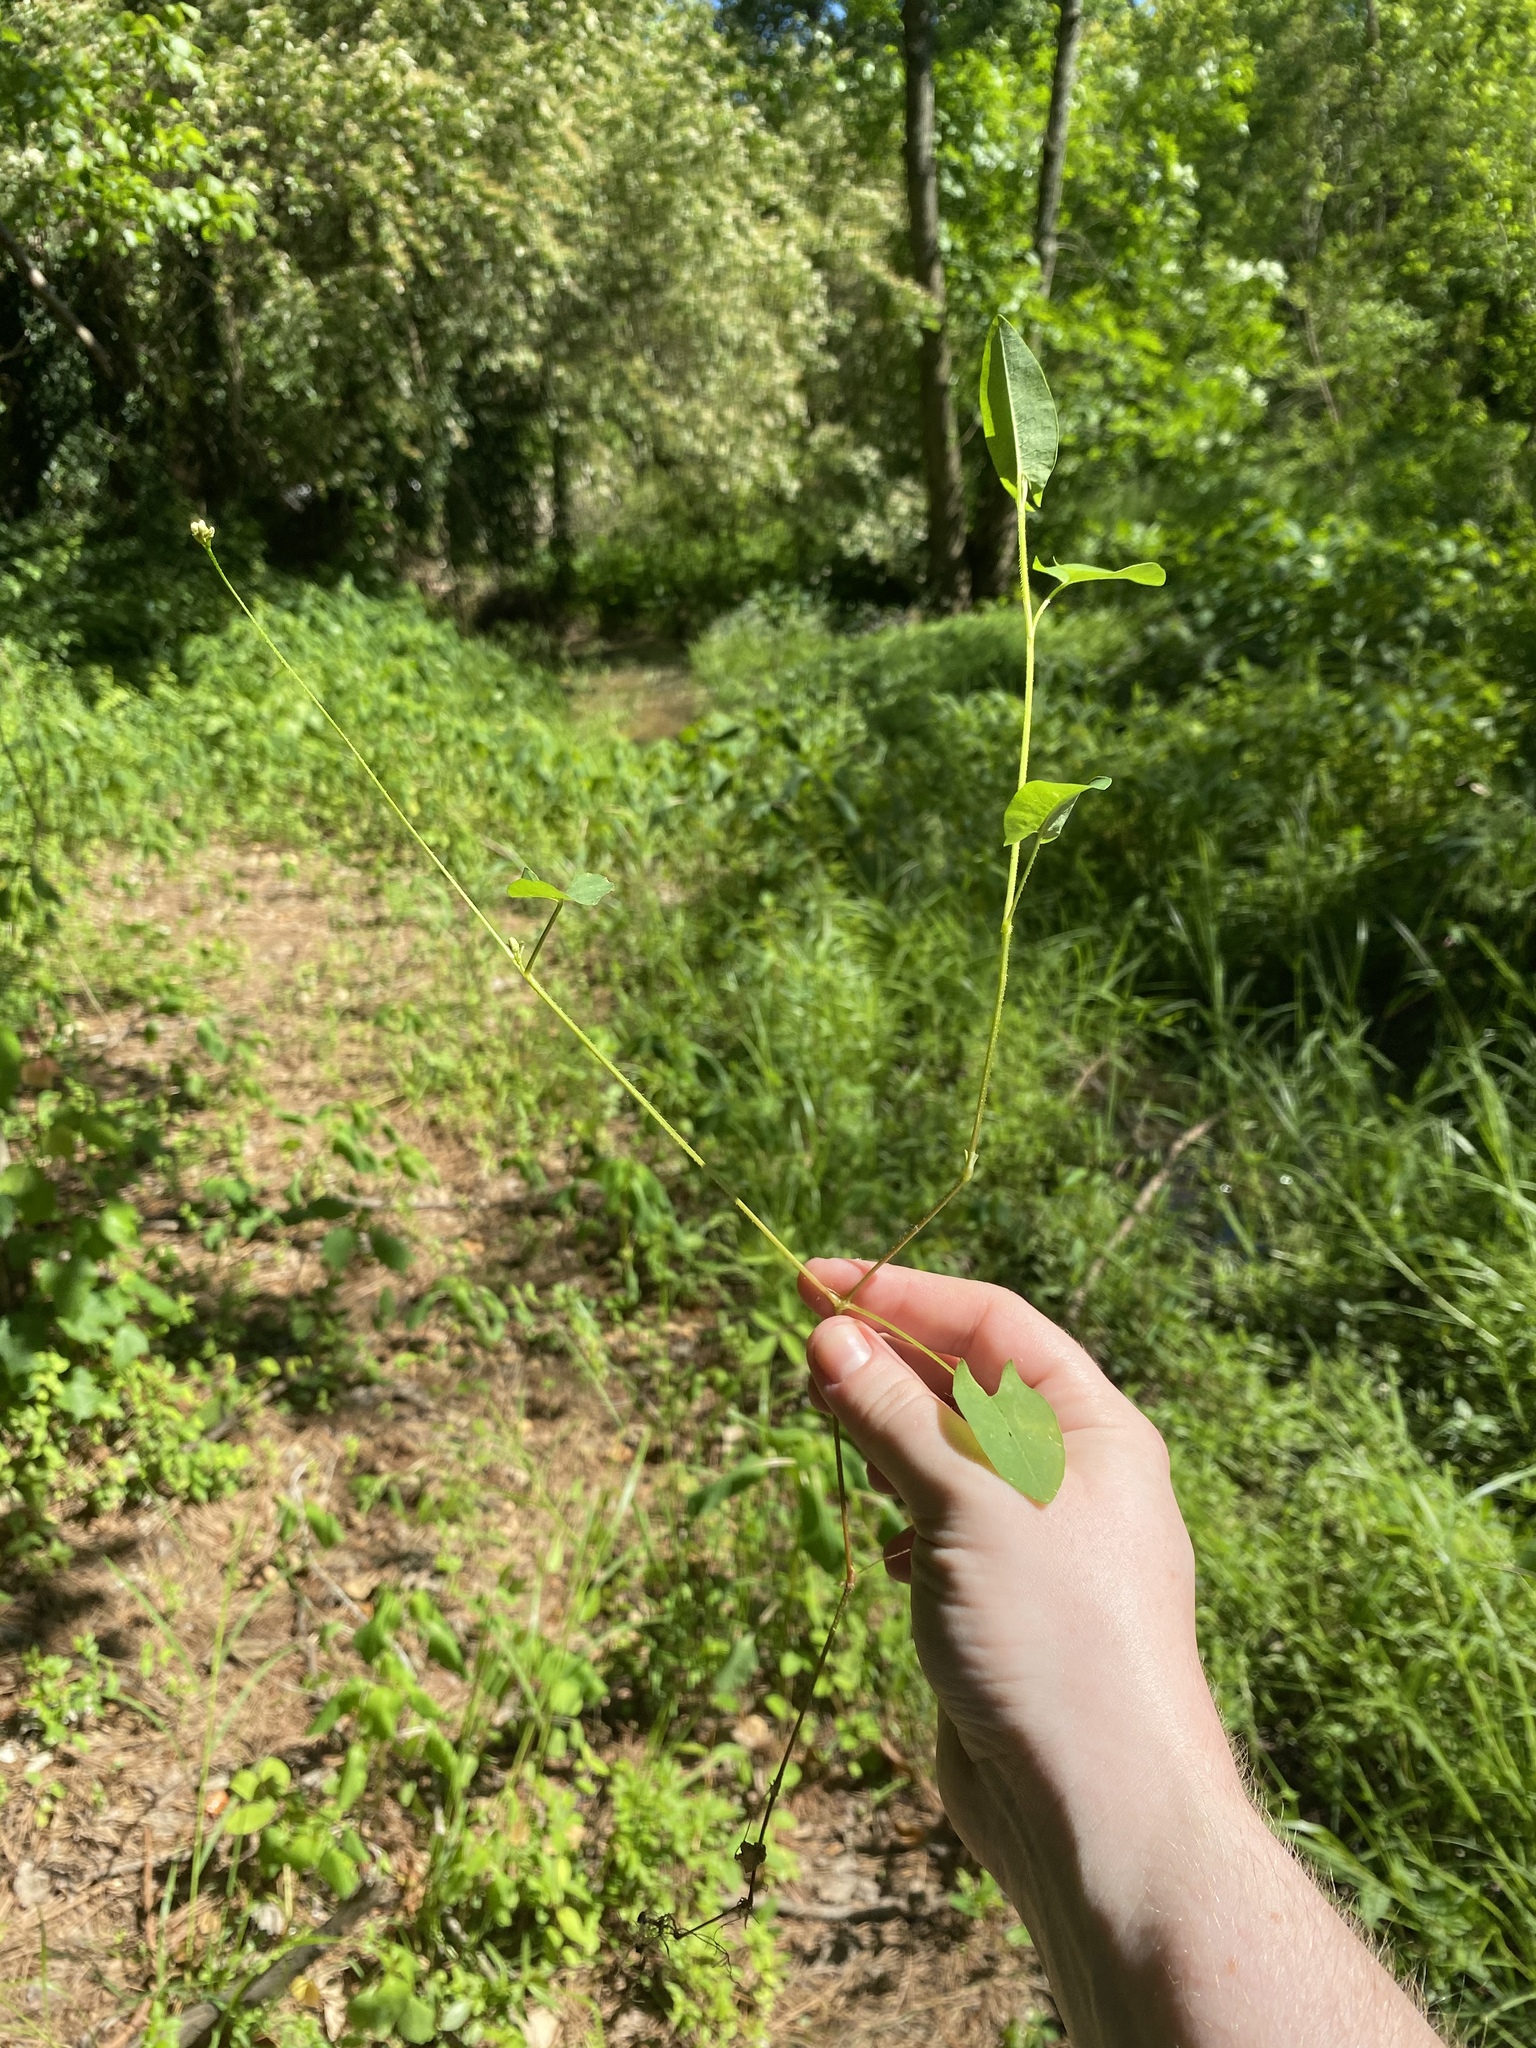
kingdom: Plantae
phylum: Tracheophyta
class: Magnoliopsida
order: Caryophyllales
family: Polygonaceae
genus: Persicaria
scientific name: Persicaria sagittata
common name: American tearthumb
